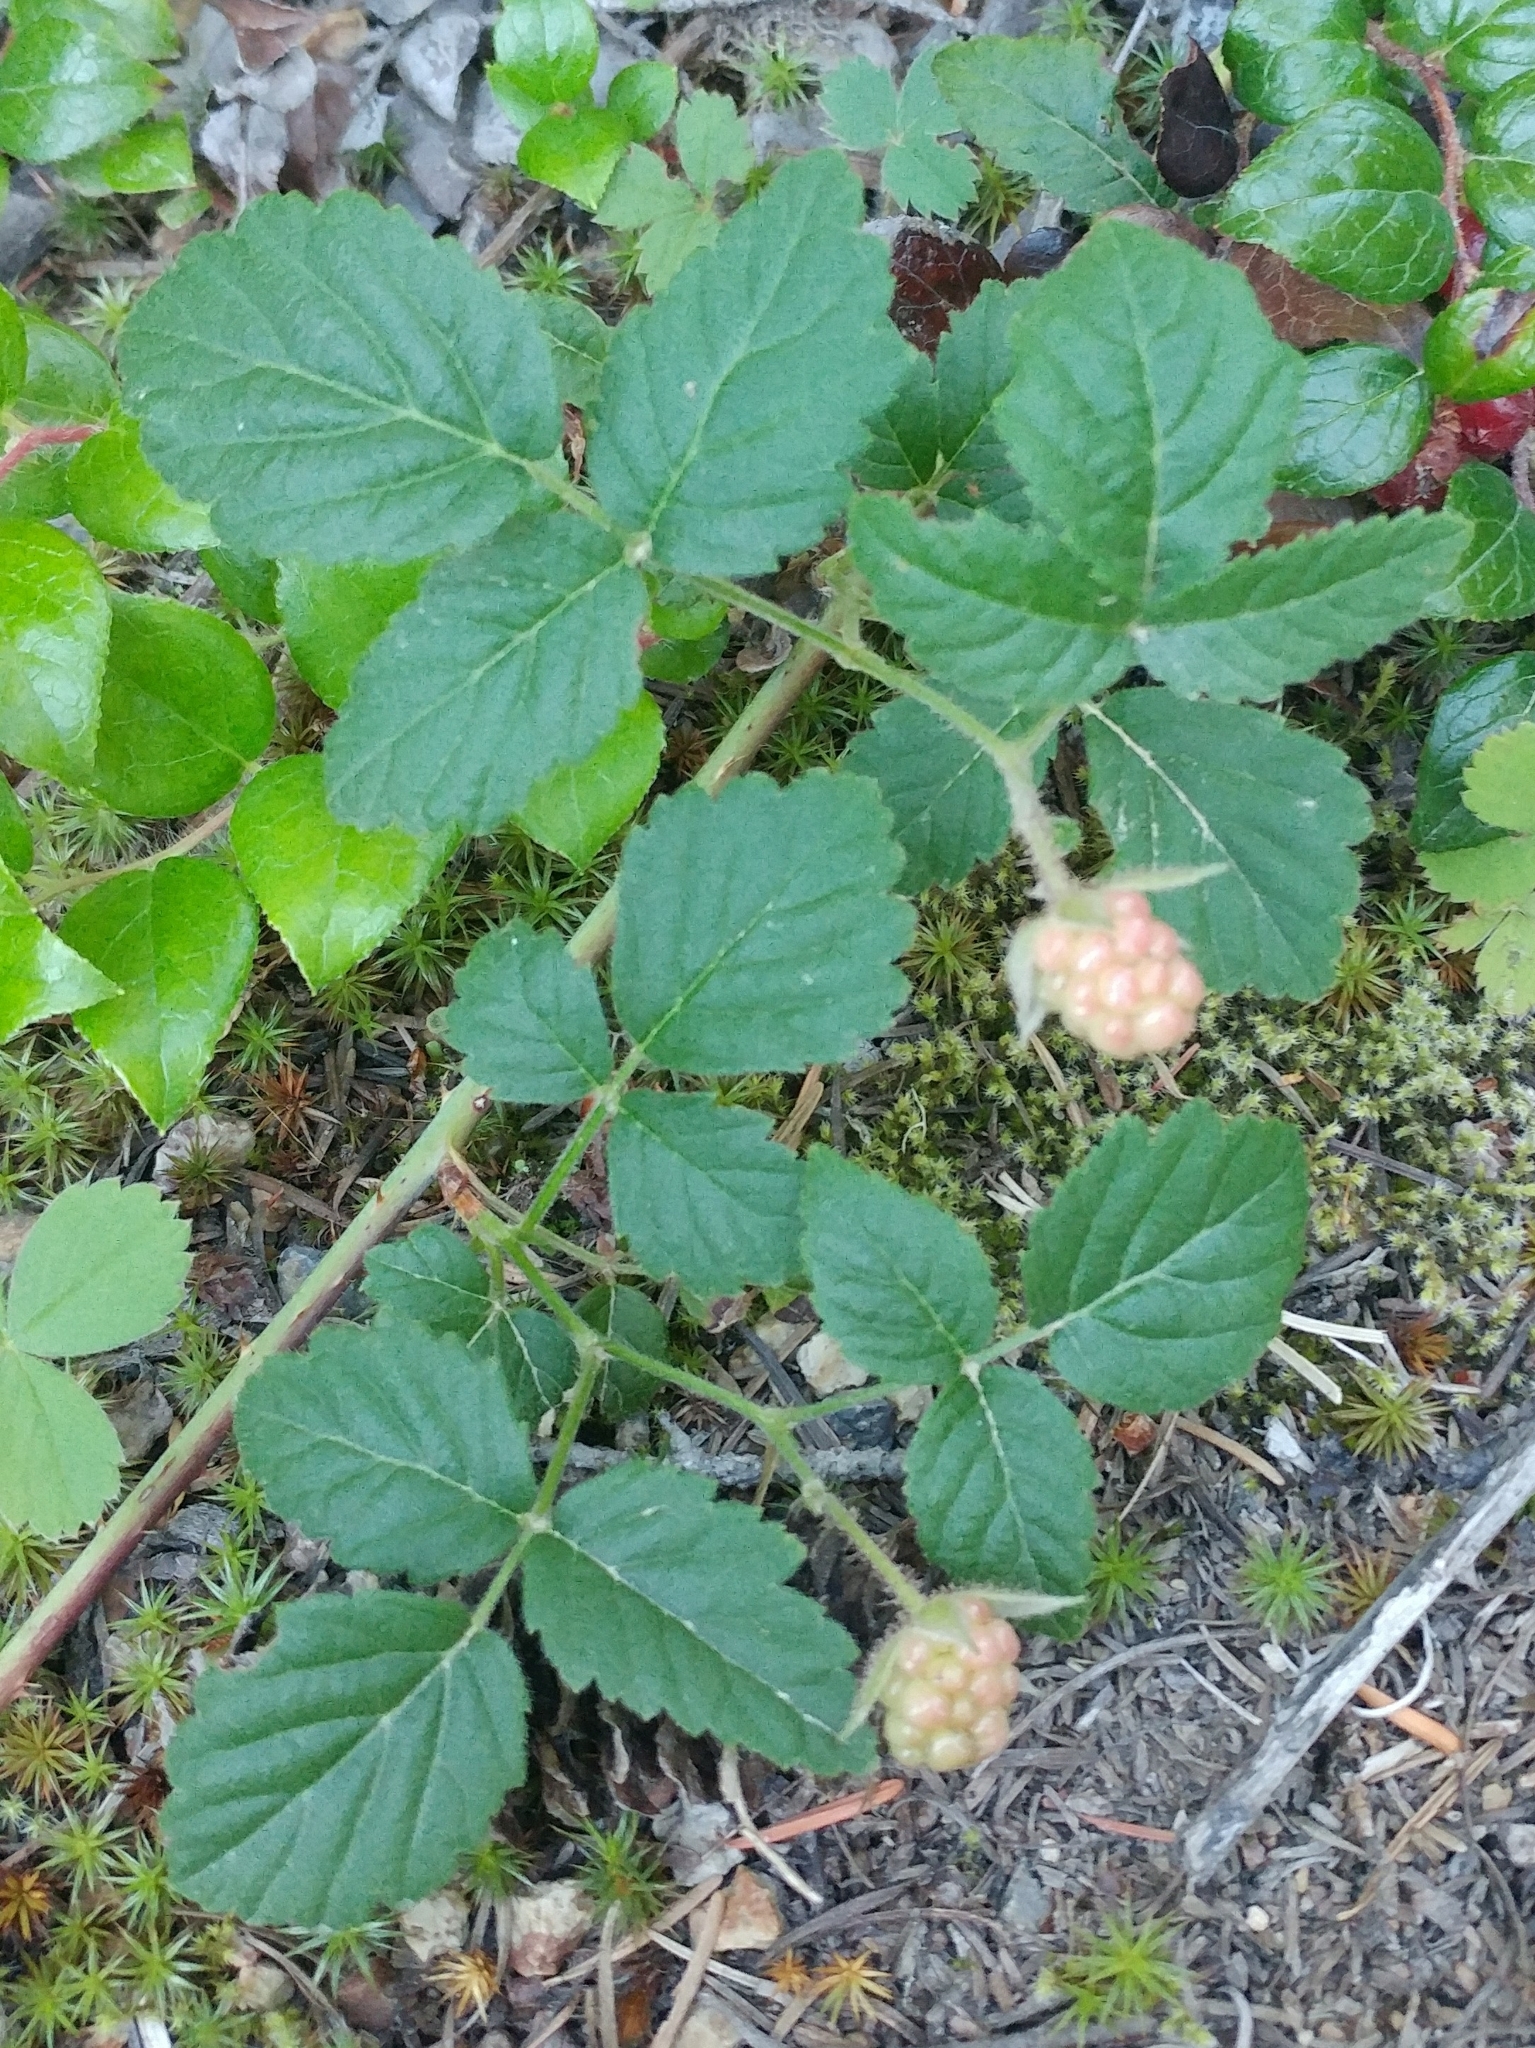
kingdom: Plantae
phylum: Tracheophyta
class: Magnoliopsida
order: Rosales
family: Rosaceae
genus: Rubus
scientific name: Rubus ursinus
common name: Pacific blackberry
